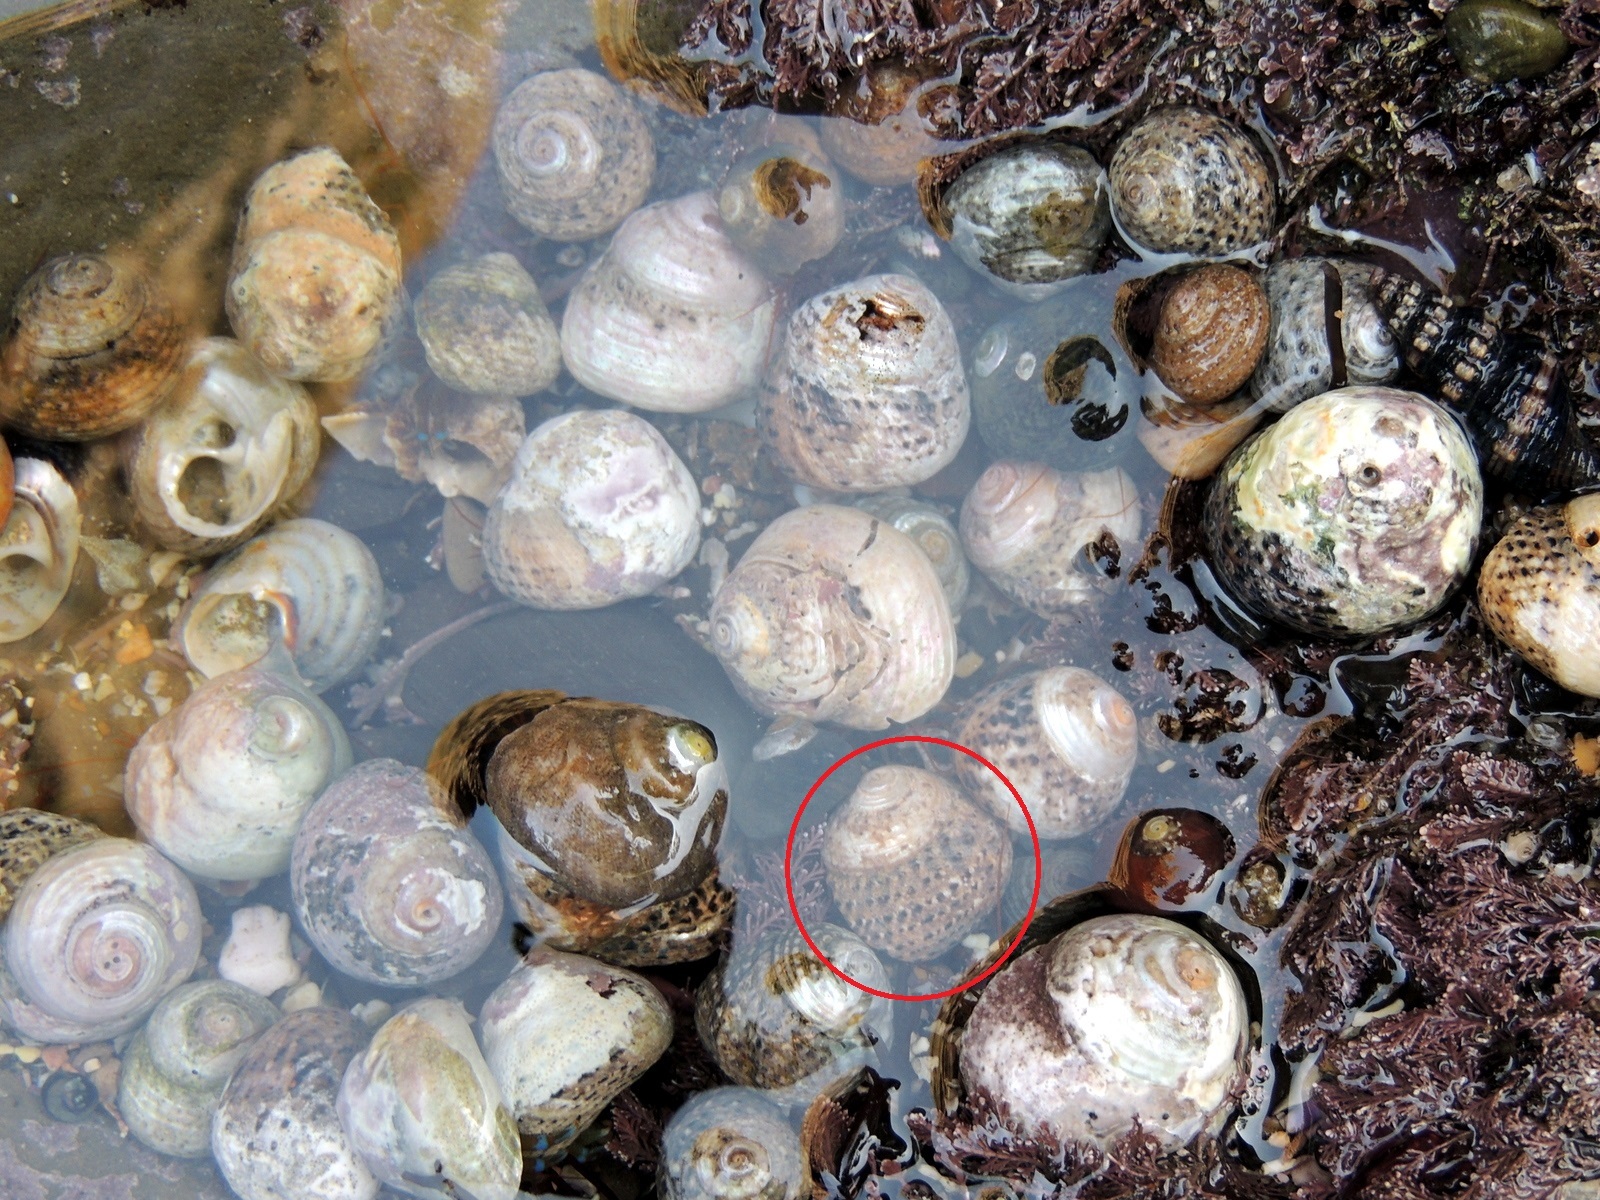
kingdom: Animalia
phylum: Mollusca
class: Gastropoda
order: Trochida
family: Tegulidae
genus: Tegula
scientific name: Tegula gallina
